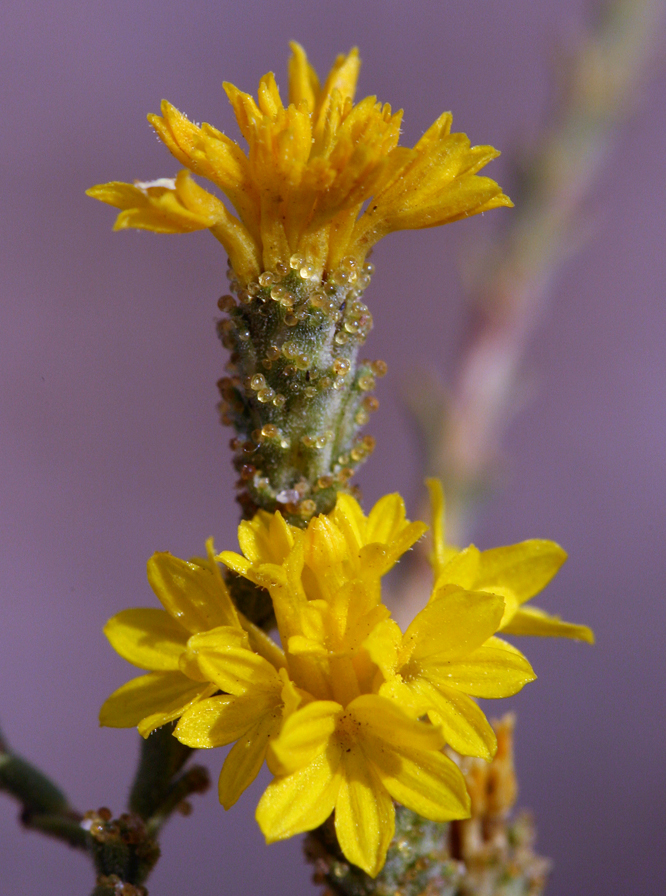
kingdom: Plantae
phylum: Tracheophyta
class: Magnoliopsida
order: Asterales
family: Asteraceae
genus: Lessingia
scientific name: Lessingia glandulifera
